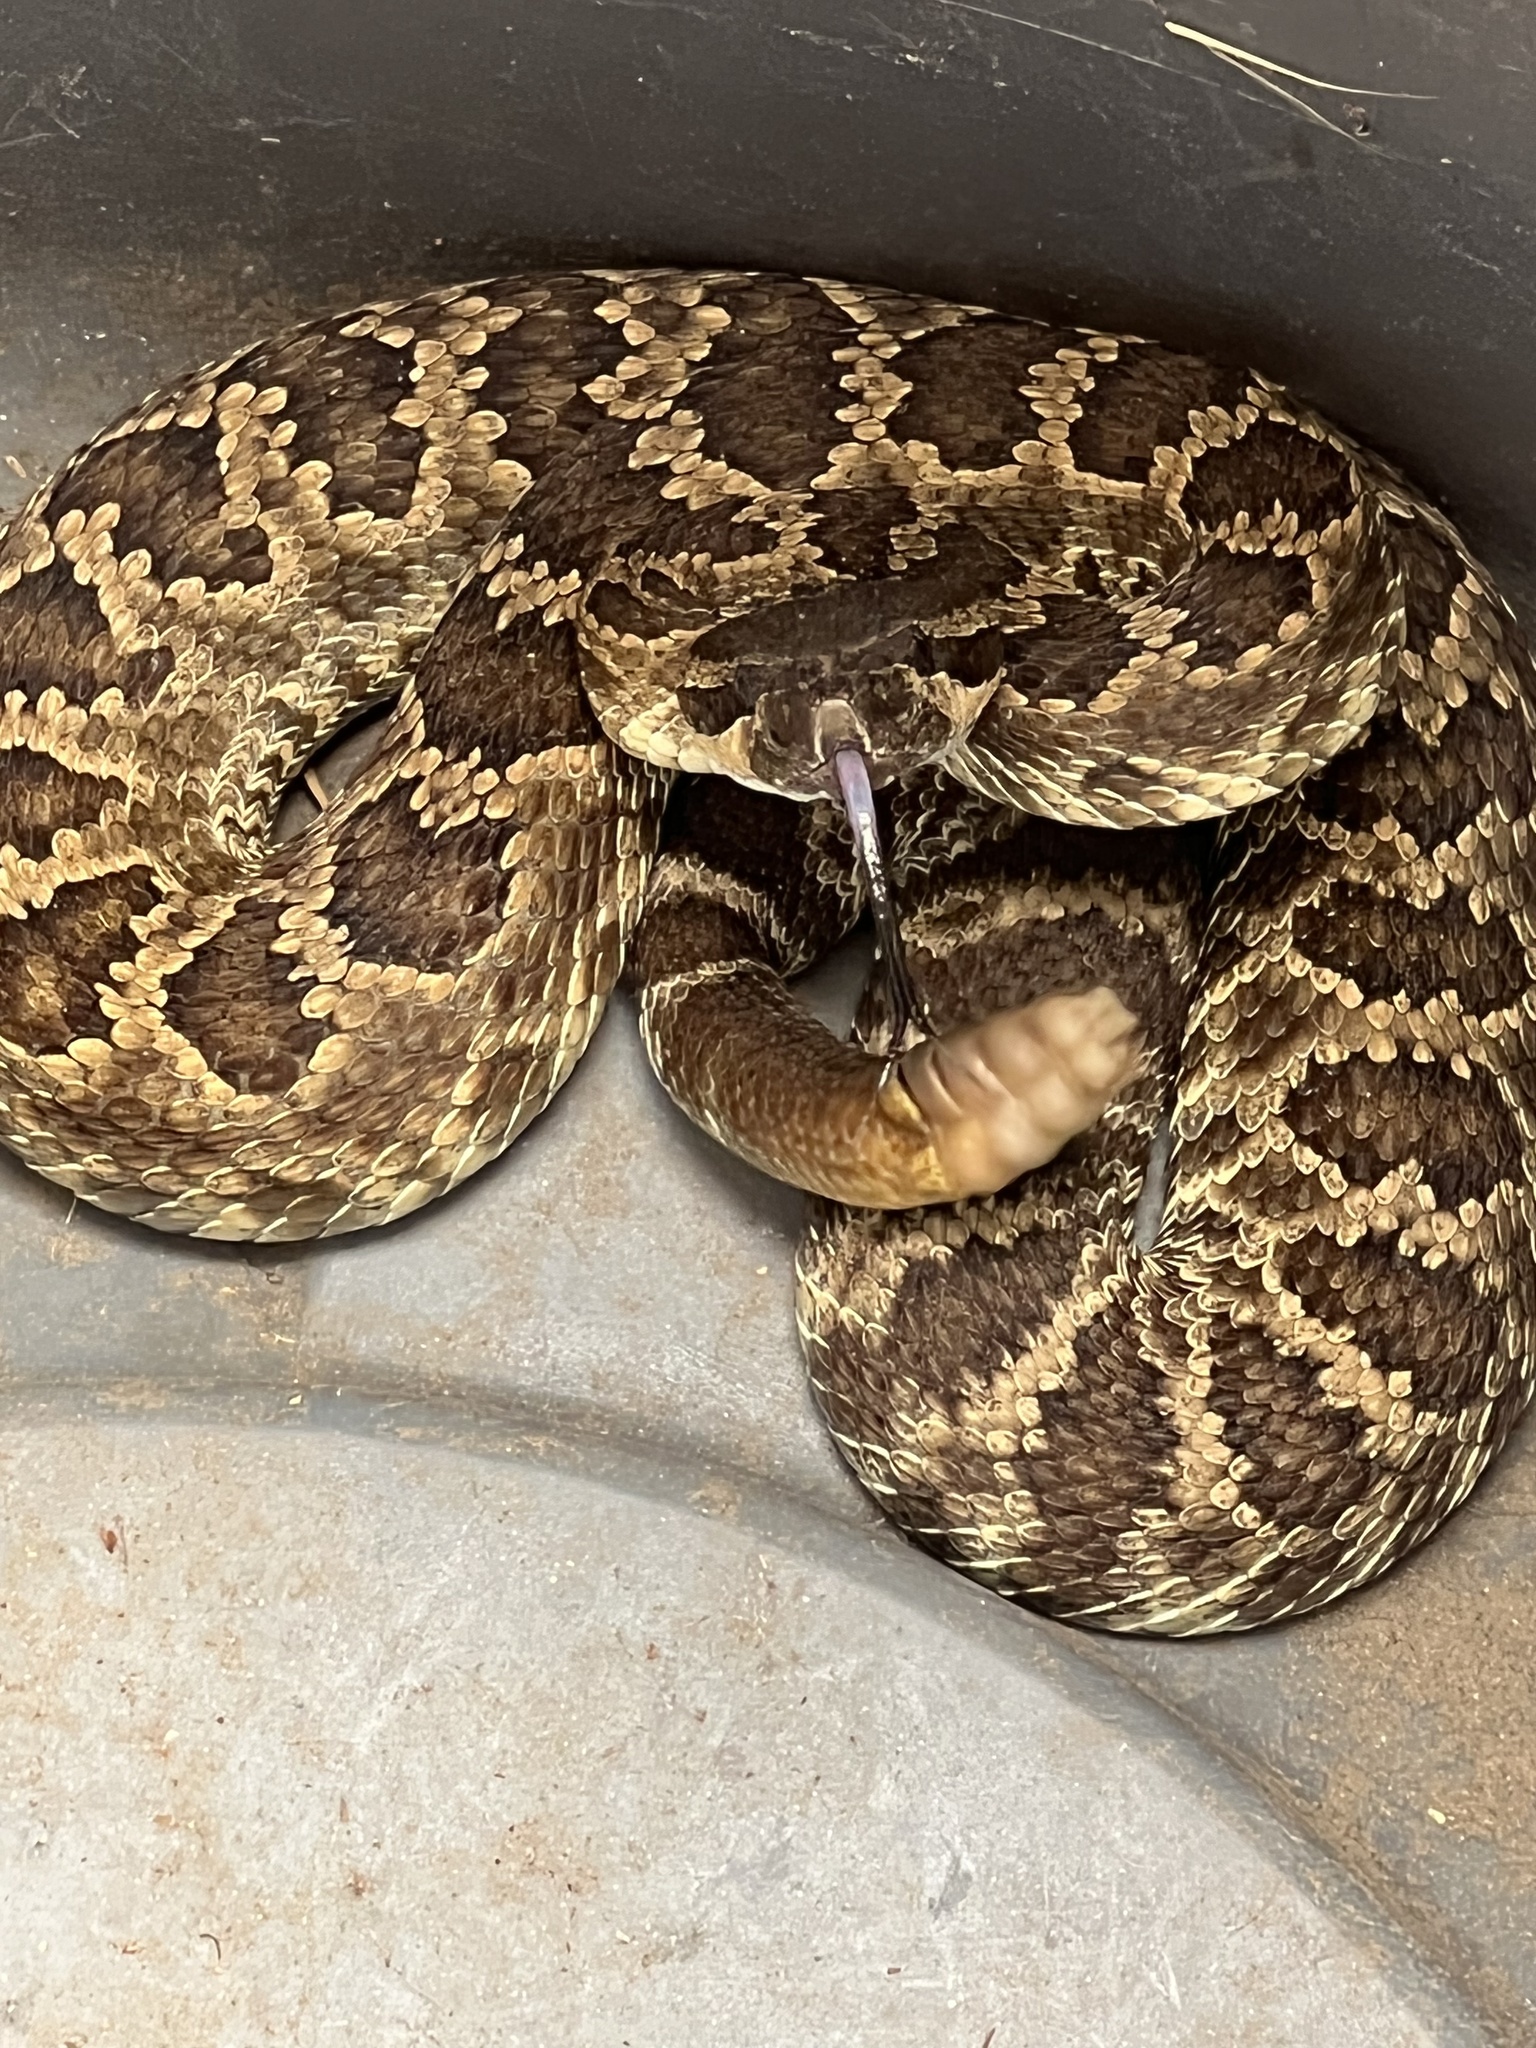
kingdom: Animalia
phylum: Chordata
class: Squamata
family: Viperidae
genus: Crotalus
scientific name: Crotalus oreganus
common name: Abyssus
